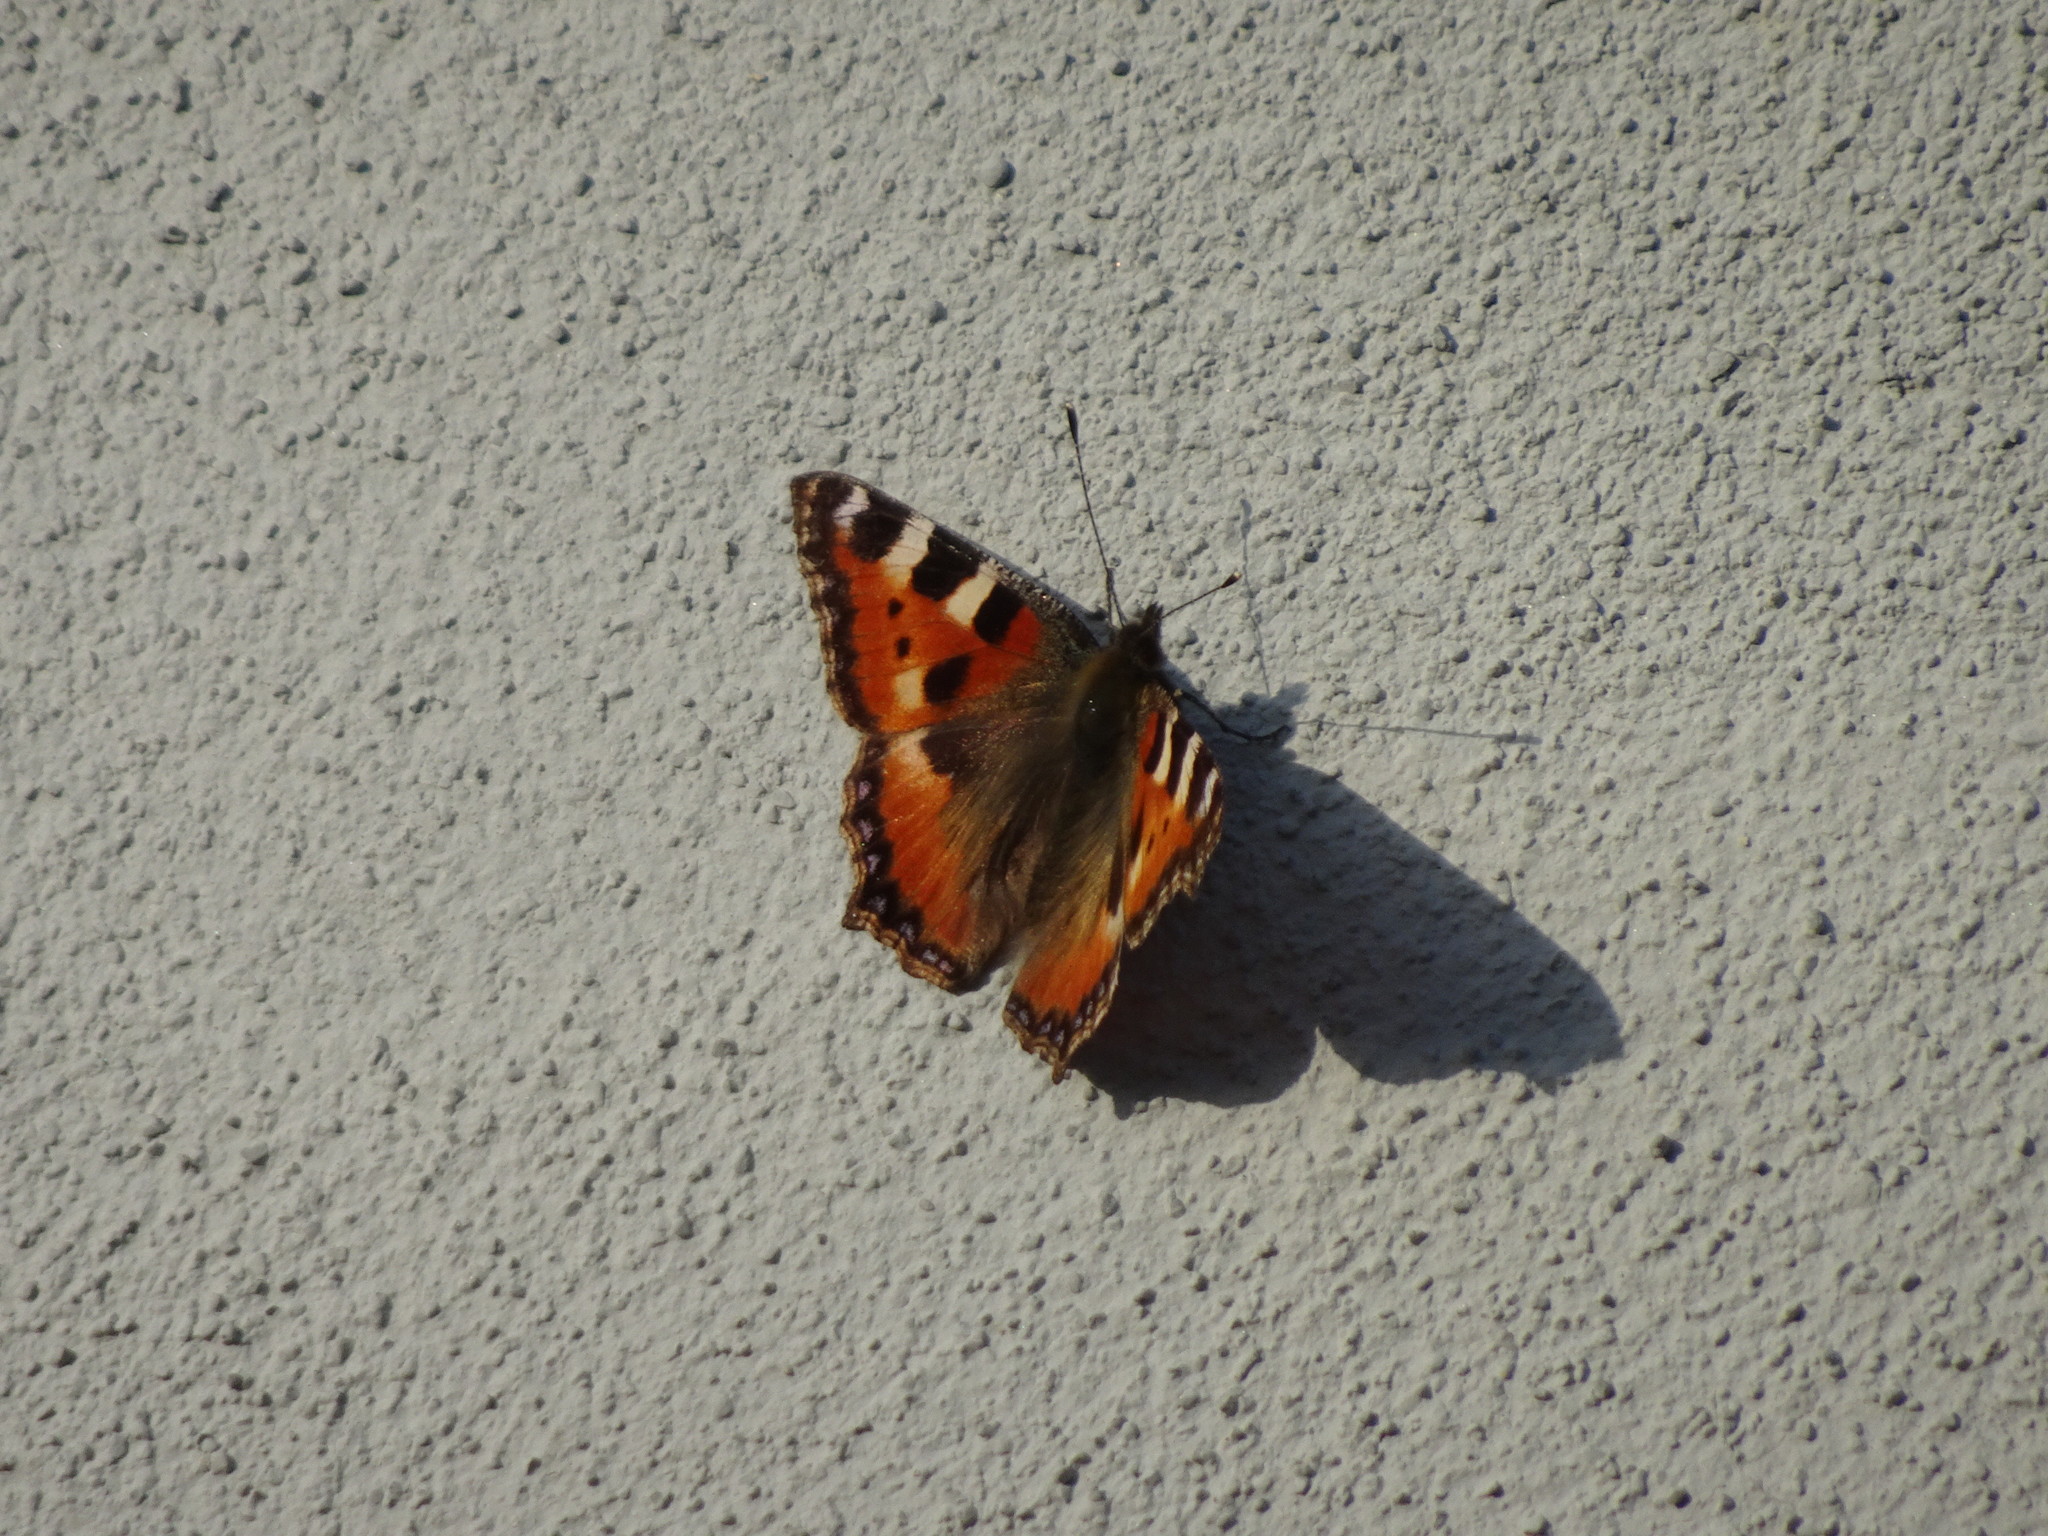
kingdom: Animalia
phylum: Arthropoda
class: Insecta
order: Lepidoptera
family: Nymphalidae
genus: Aglais
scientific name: Aglais urticae
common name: Small tortoiseshell
